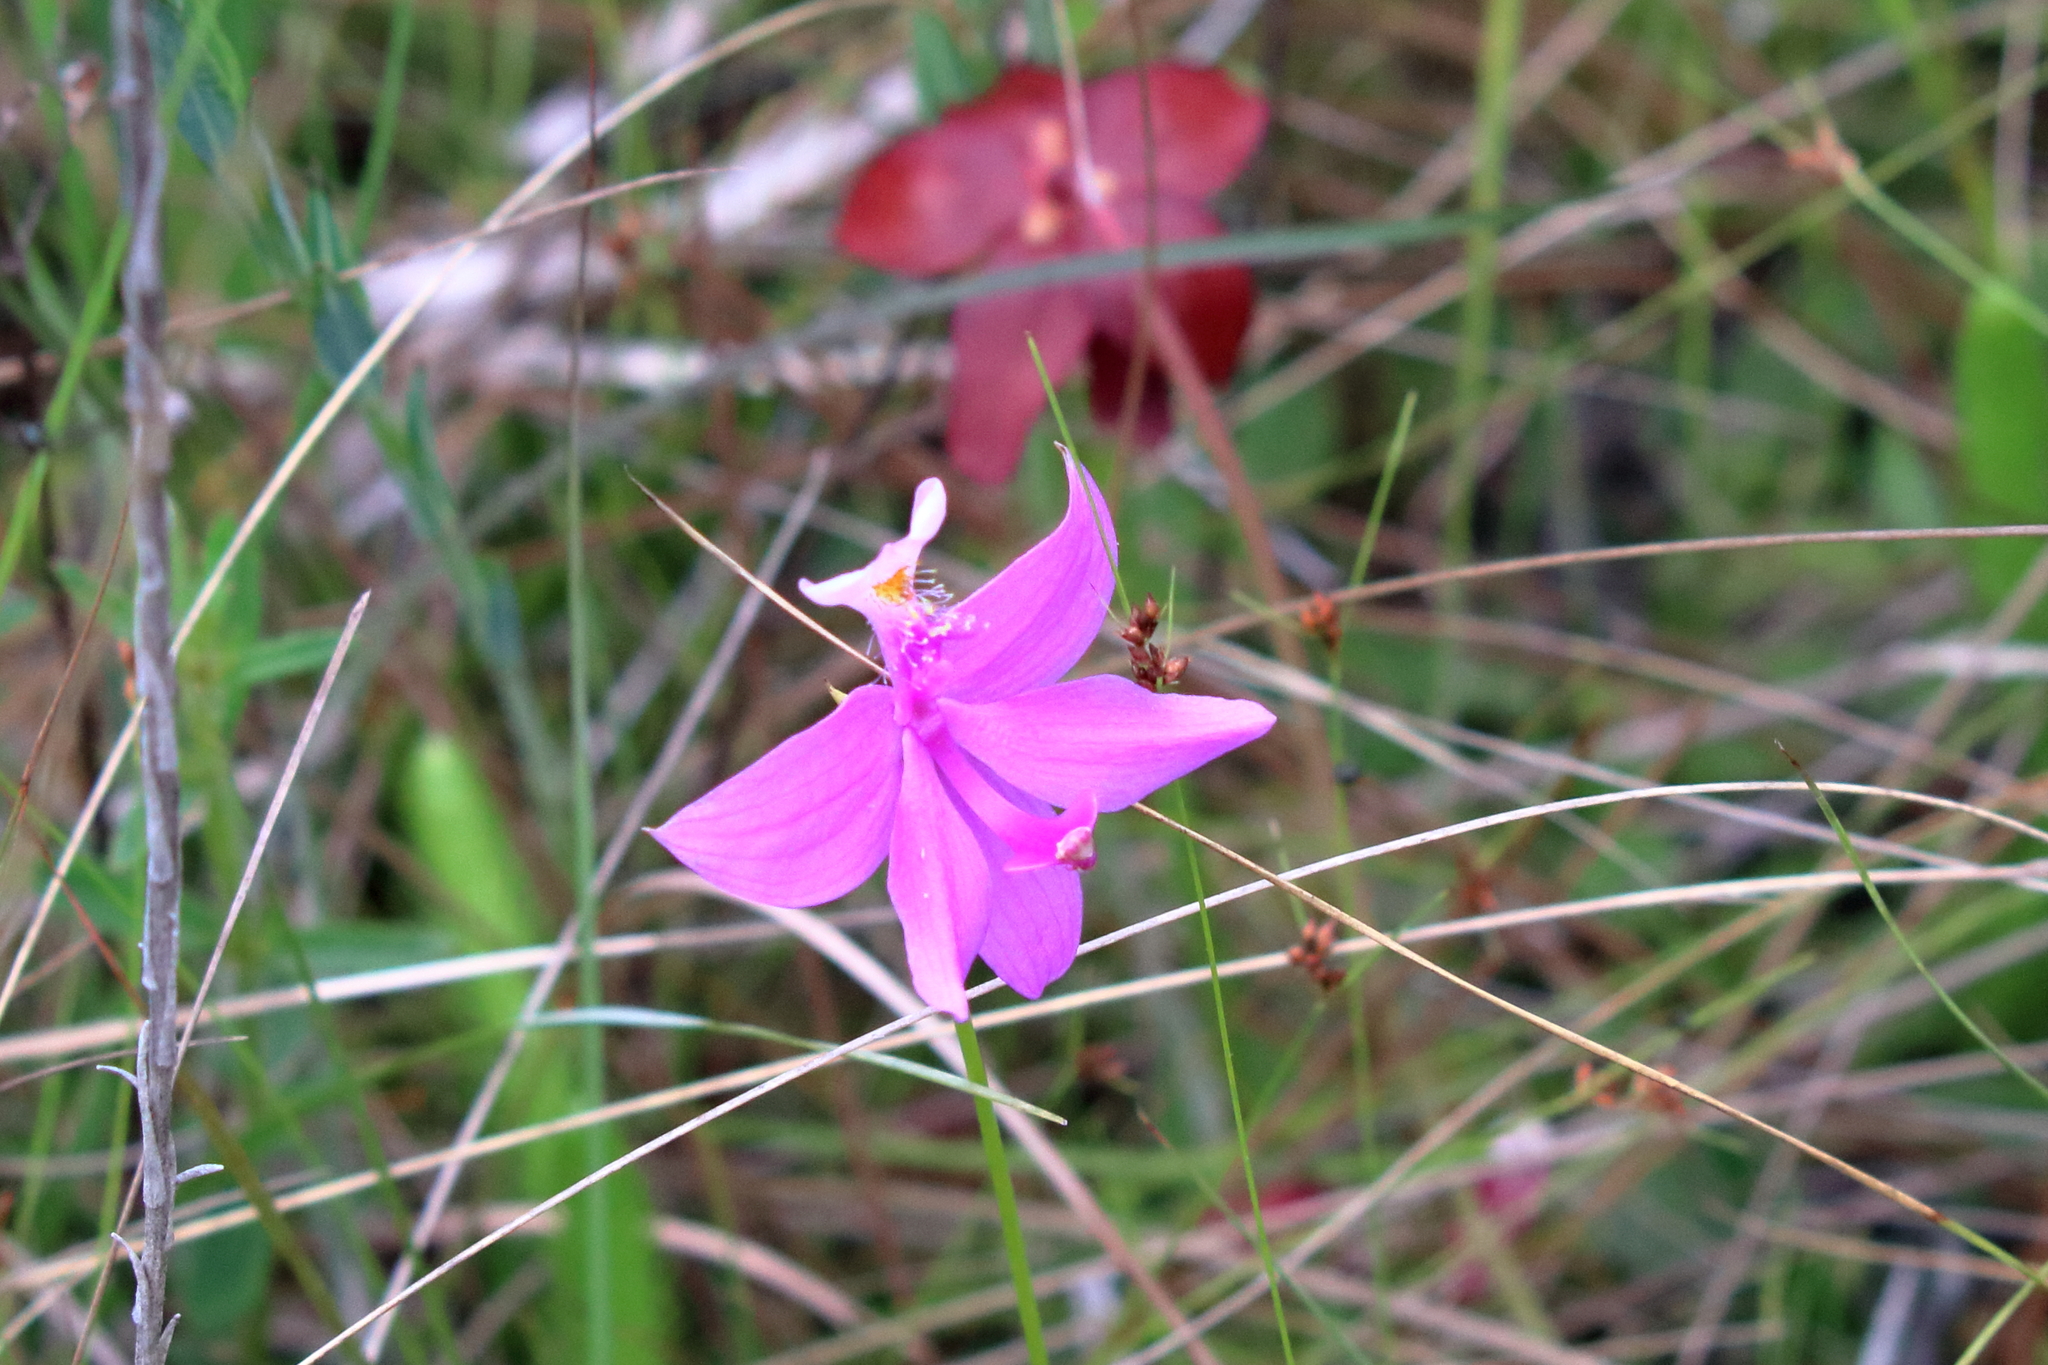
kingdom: Plantae
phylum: Tracheophyta
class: Liliopsida
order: Asparagales
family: Orchidaceae
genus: Calopogon
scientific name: Calopogon tuberosus
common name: Grass-pink
